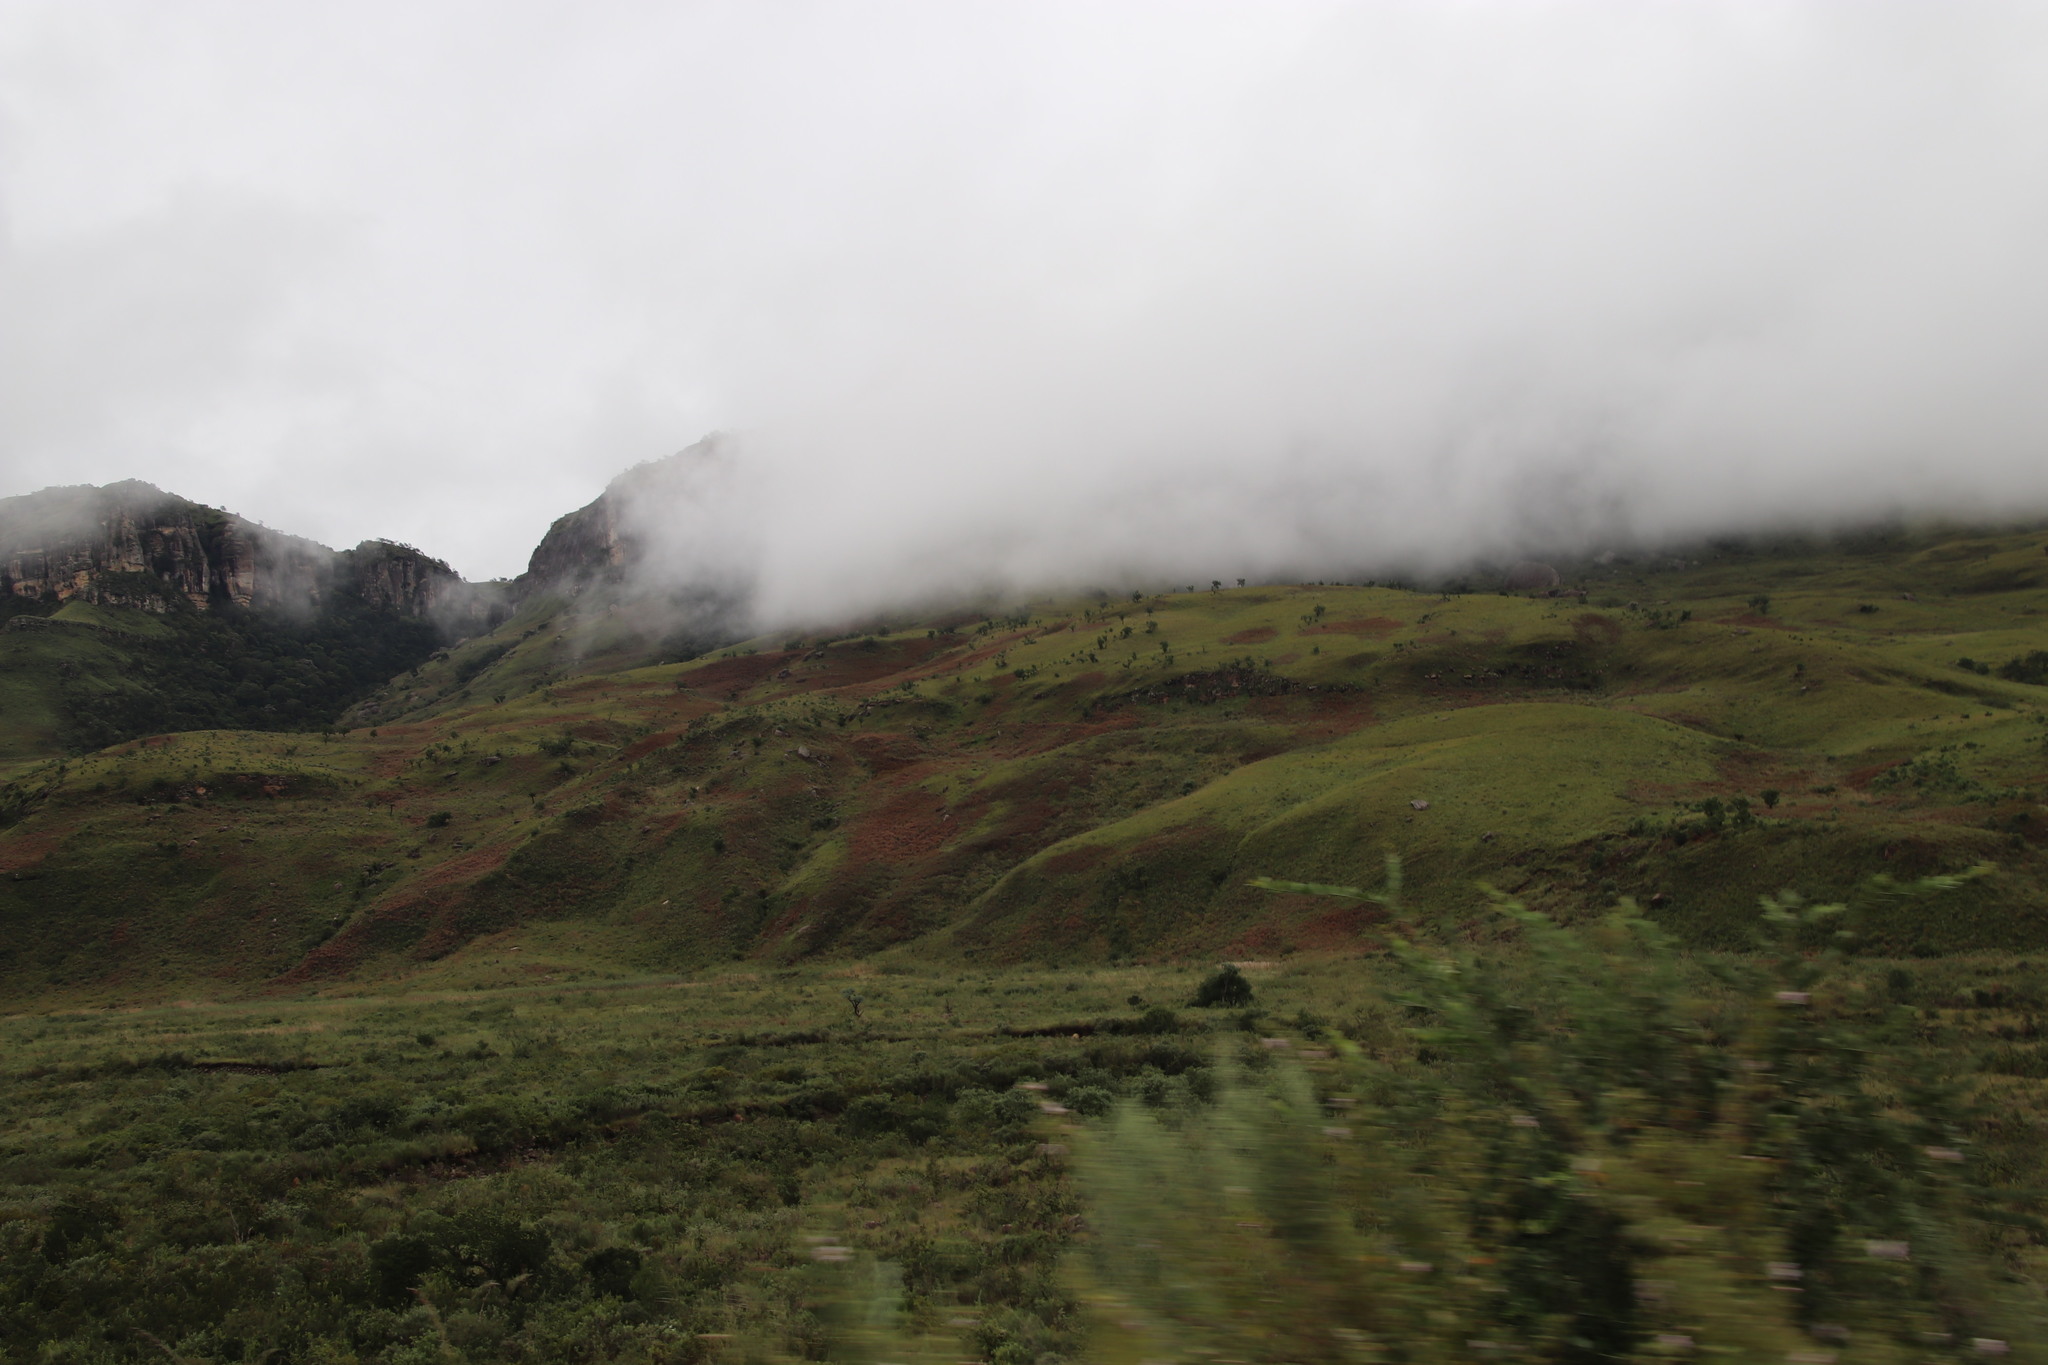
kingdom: Plantae
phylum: Tracheophyta
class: Magnoliopsida
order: Proteales
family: Proteaceae
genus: Protea
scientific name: Protea caffra
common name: Common sugarbush
